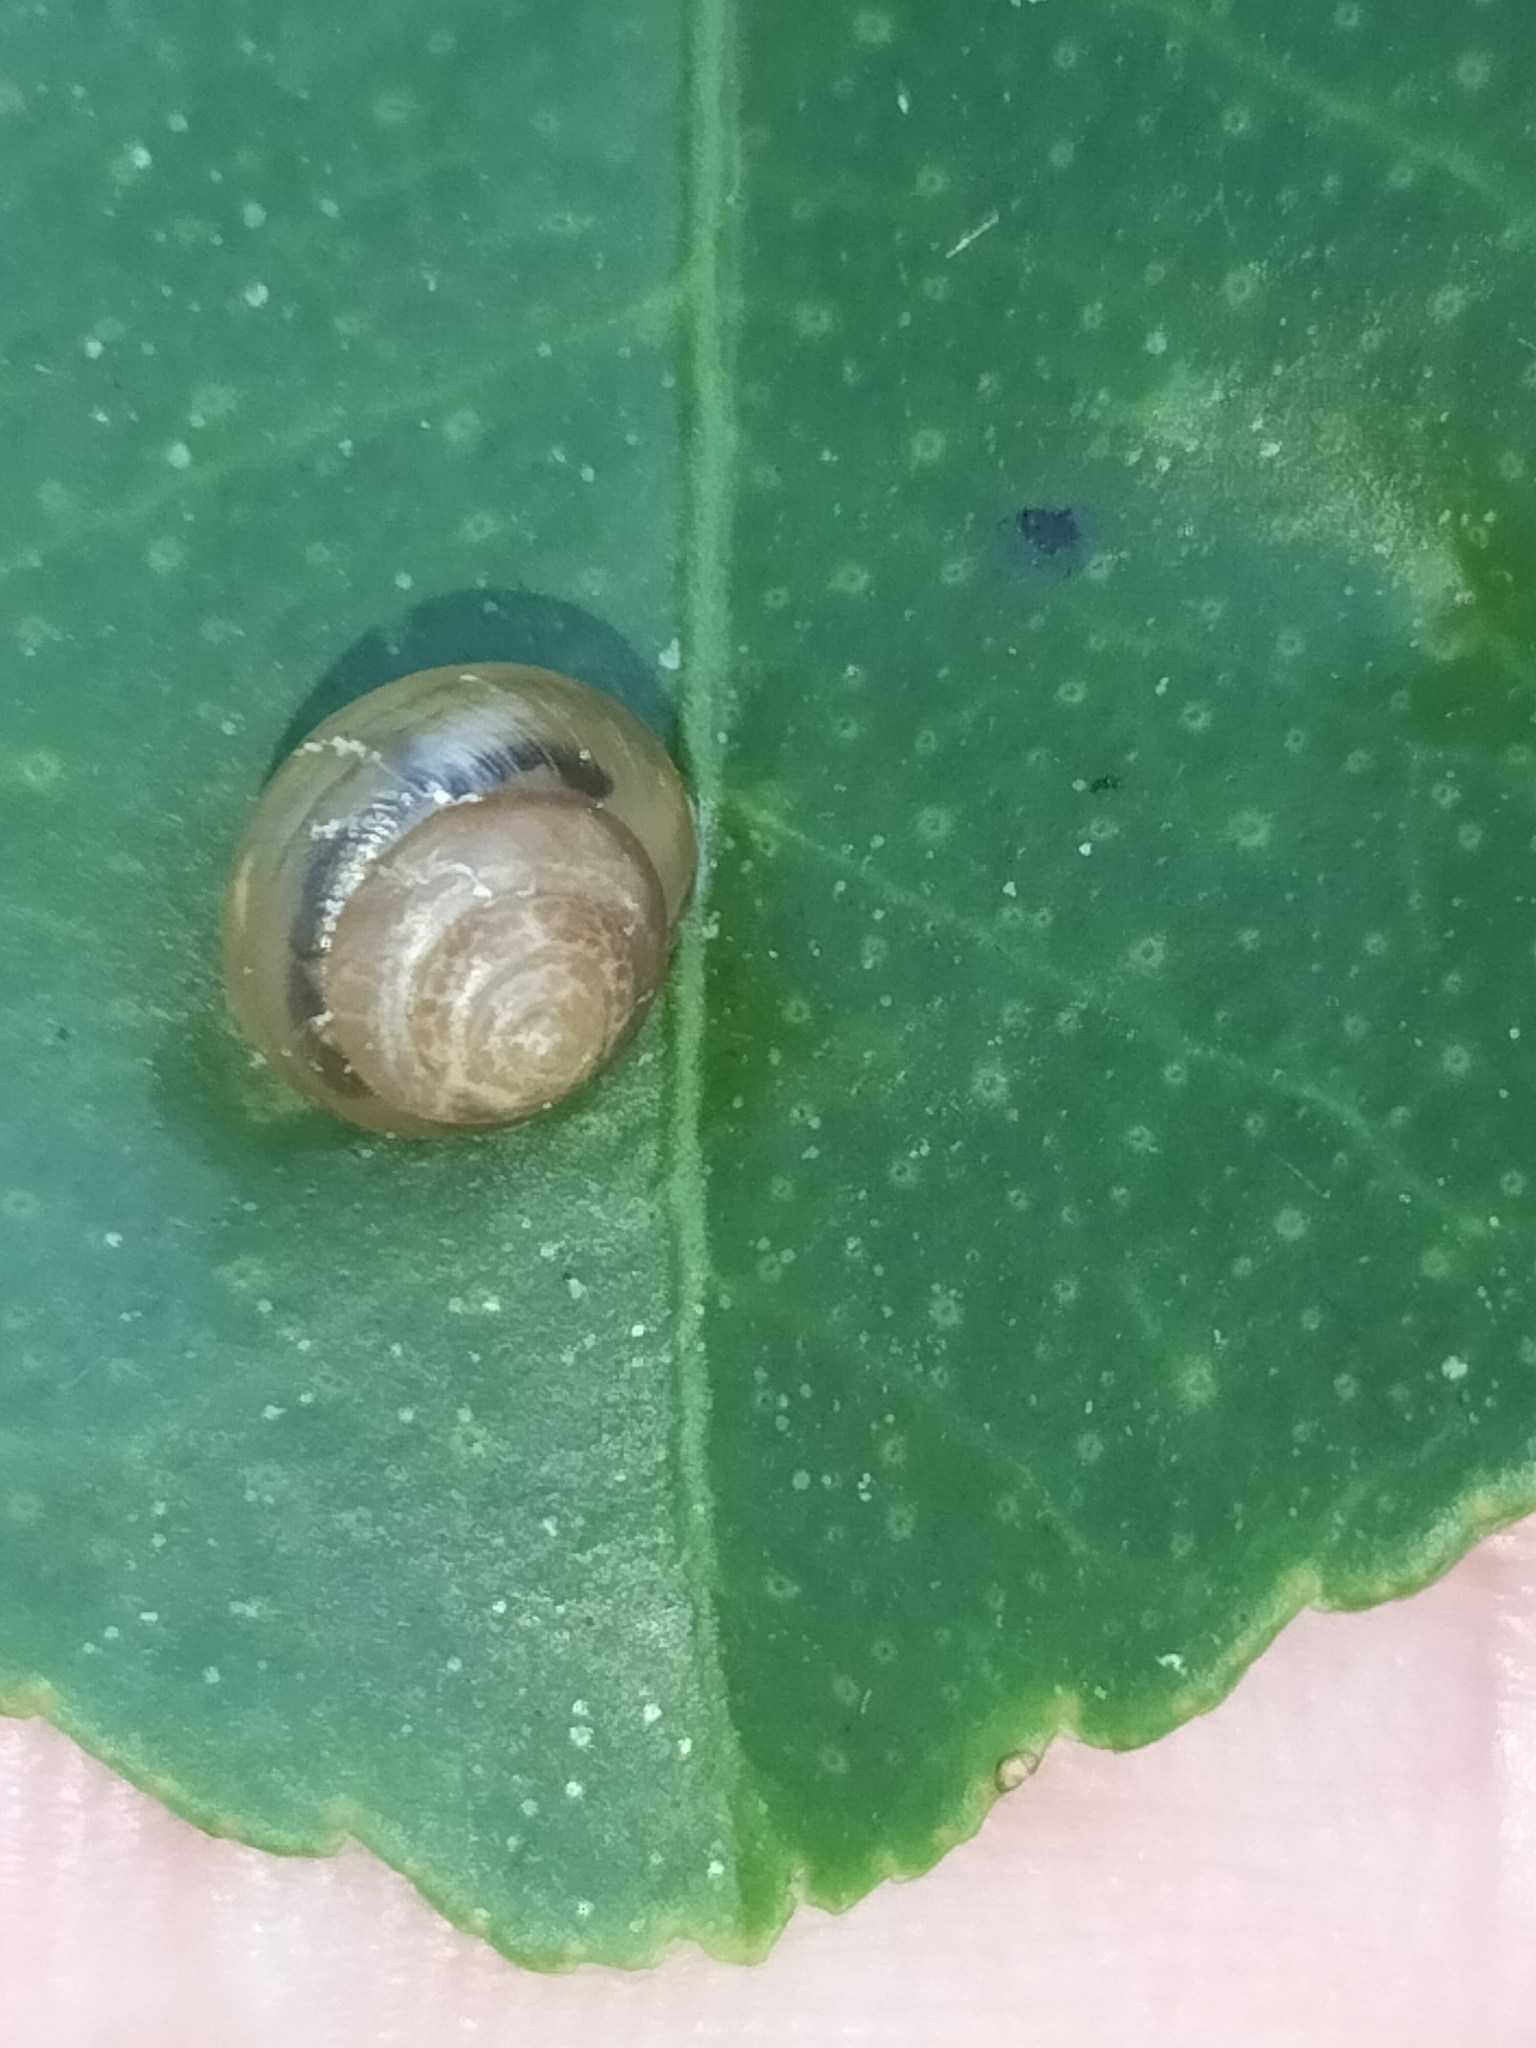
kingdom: Animalia
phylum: Mollusca
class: Gastropoda
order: Stylommatophora
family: Euconulidae
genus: Coneuplecta
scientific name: Coneuplecta calculosa
